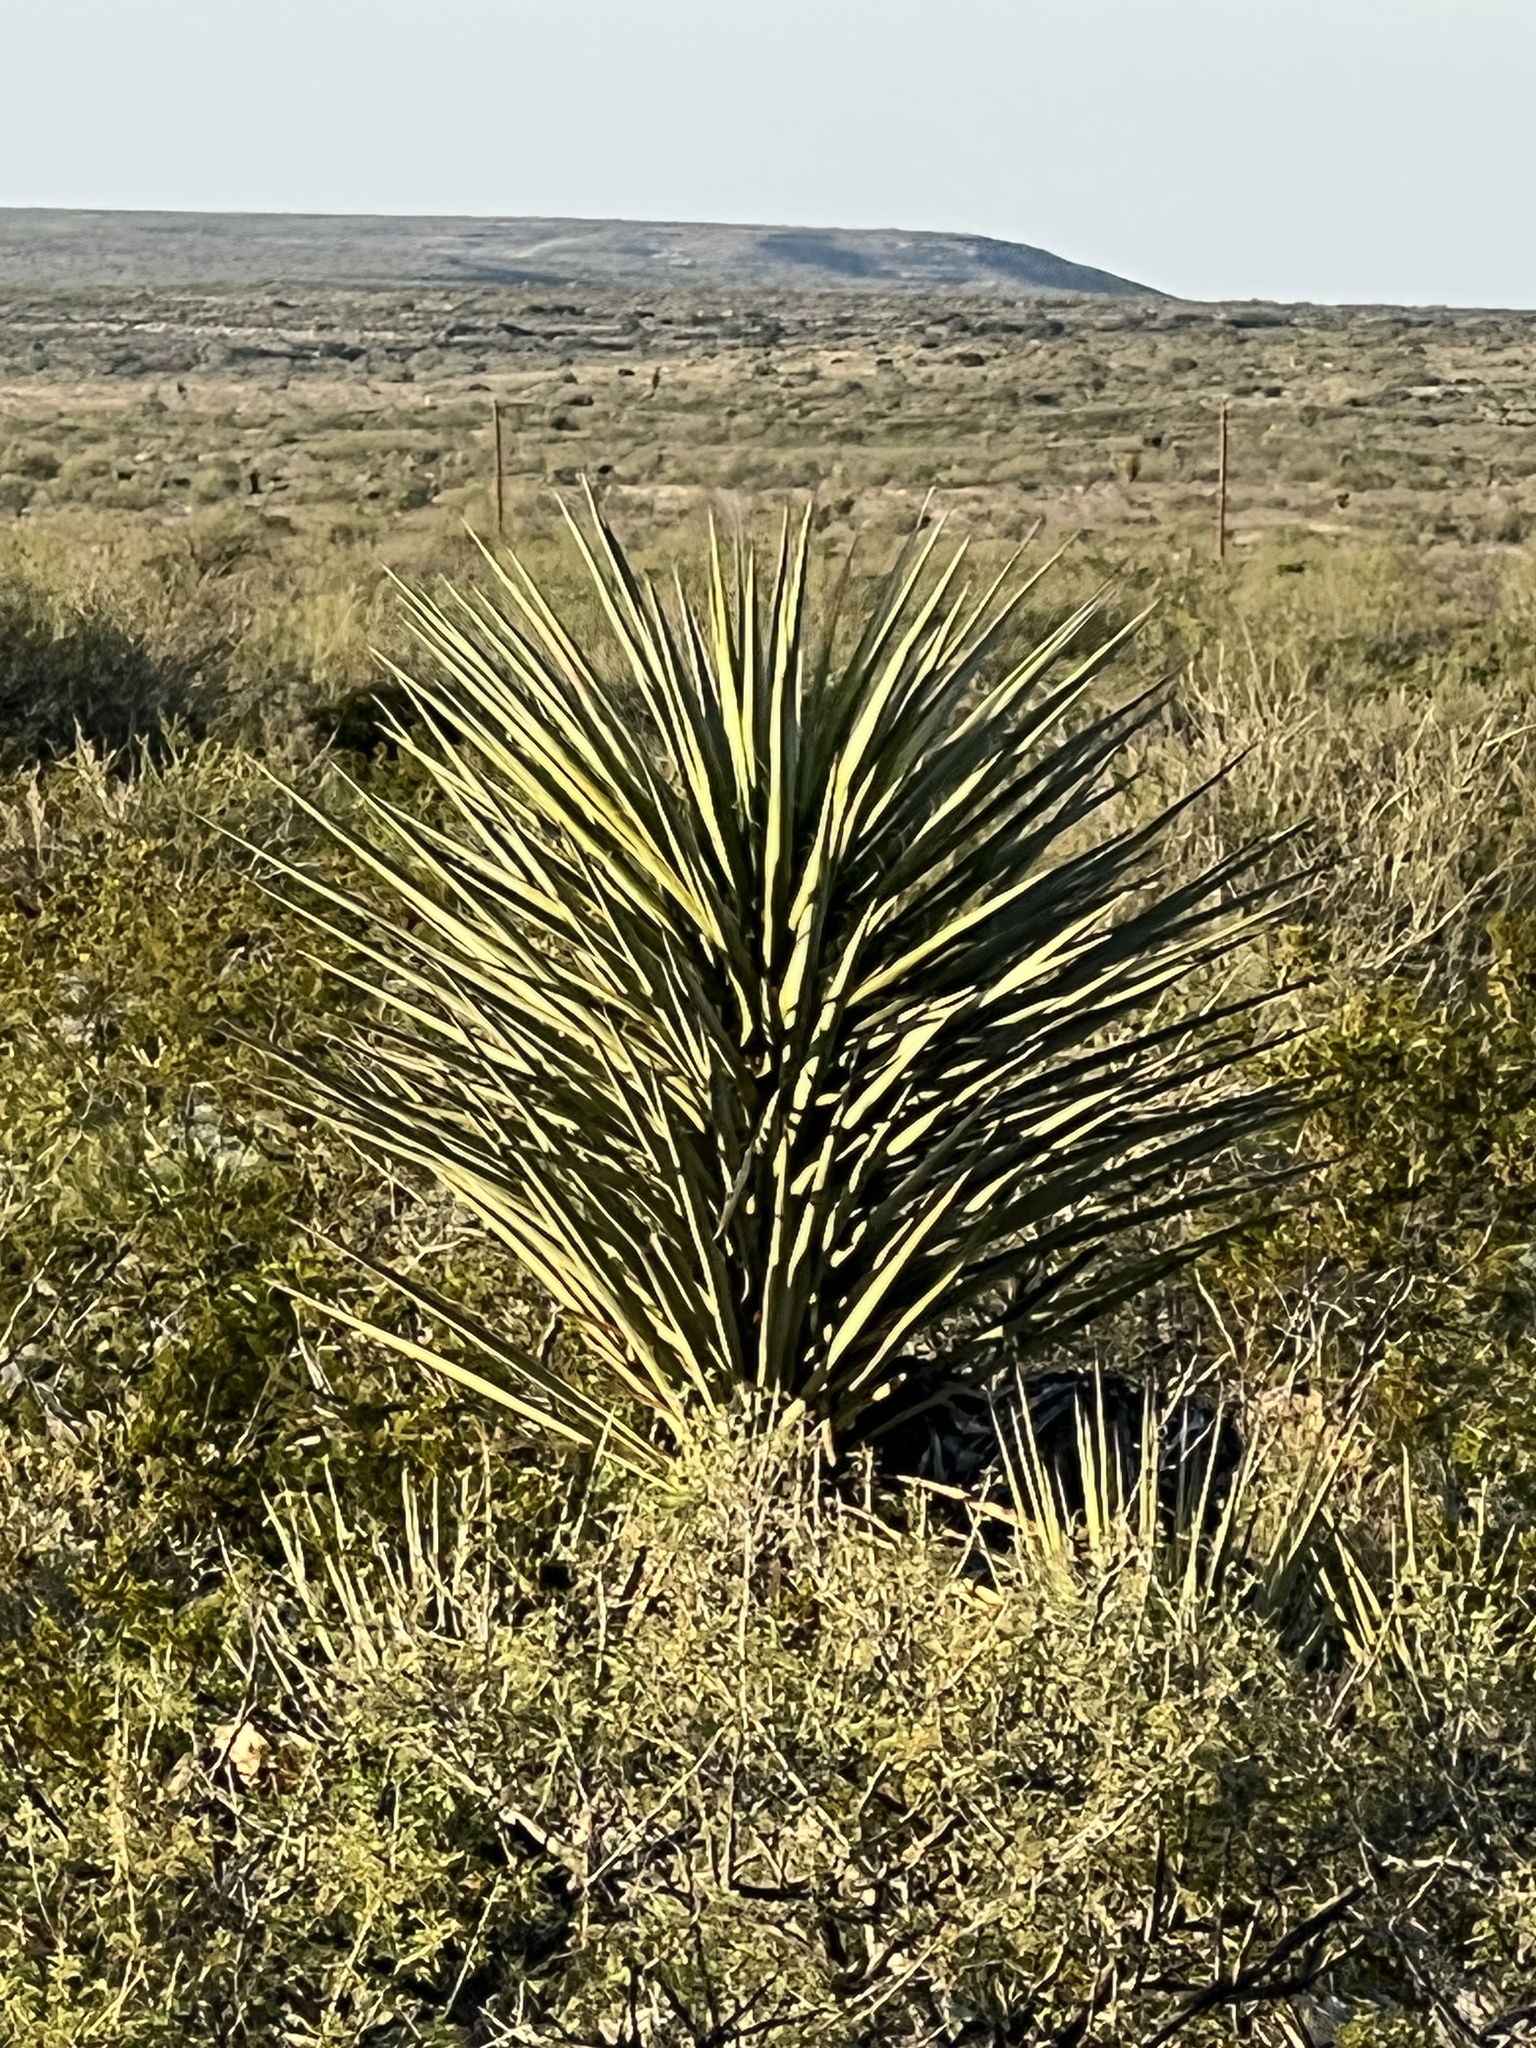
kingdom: Plantae
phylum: Tracheophyta
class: Liliopsida
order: Asparagales
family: Asparagaceae
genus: Yucca
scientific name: Yucca treculiana
